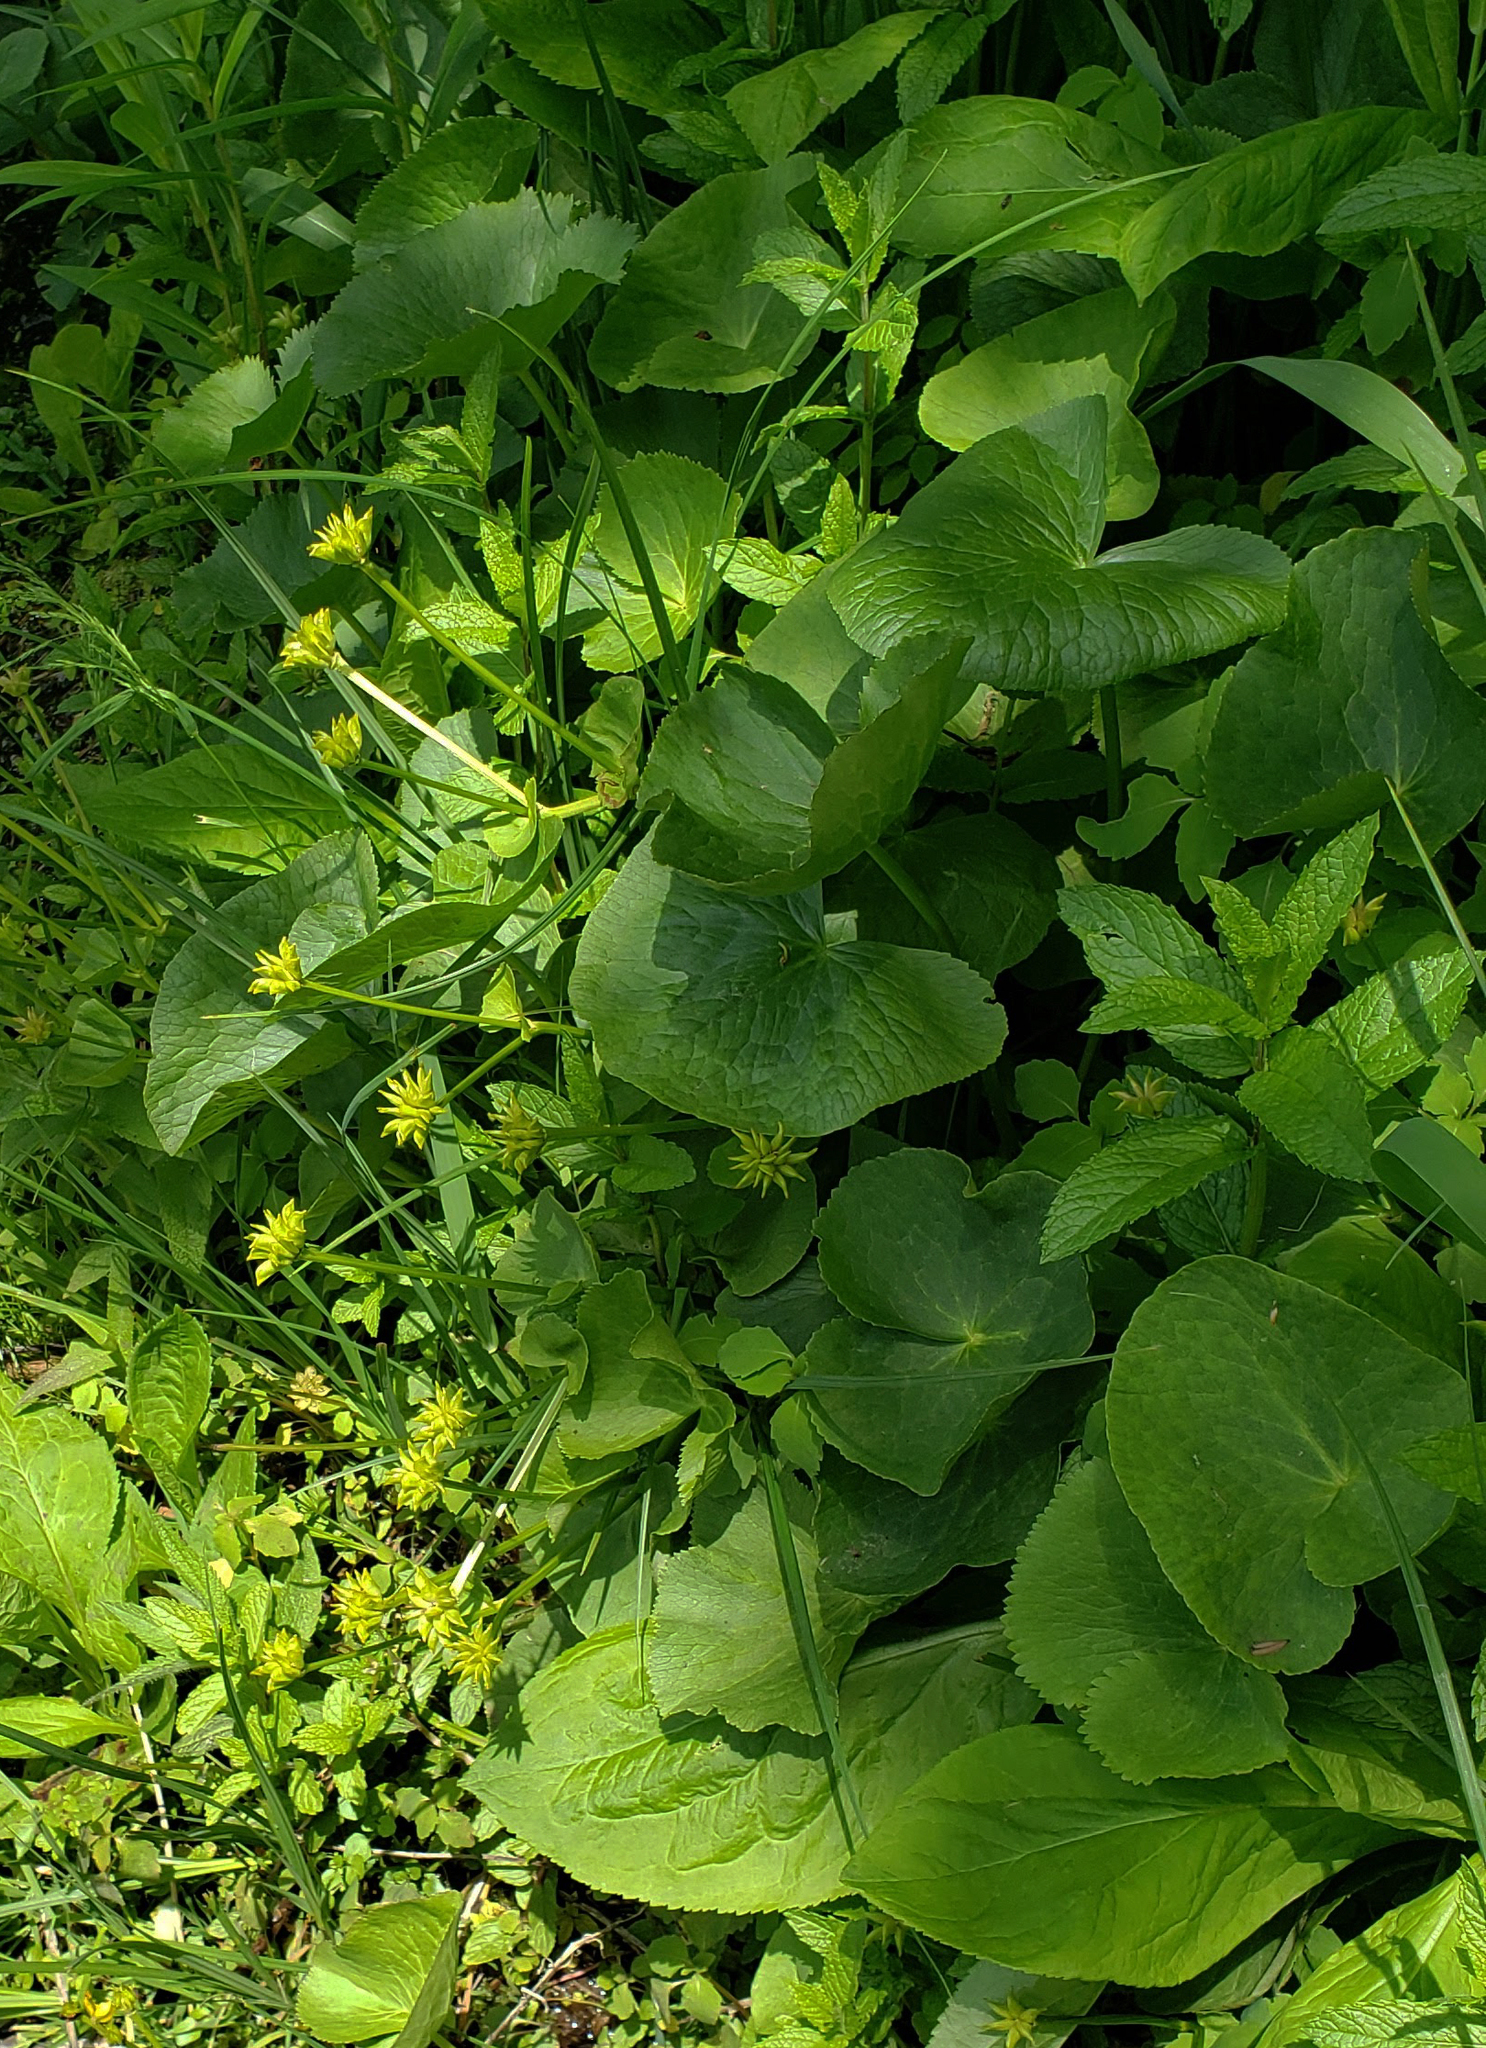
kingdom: Plantae
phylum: Tracheophyta
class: Magnoliopsida
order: Ranunculales
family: Ranunculaceae
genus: Caltha
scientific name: Caltha palustris
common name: Marsh marigold
